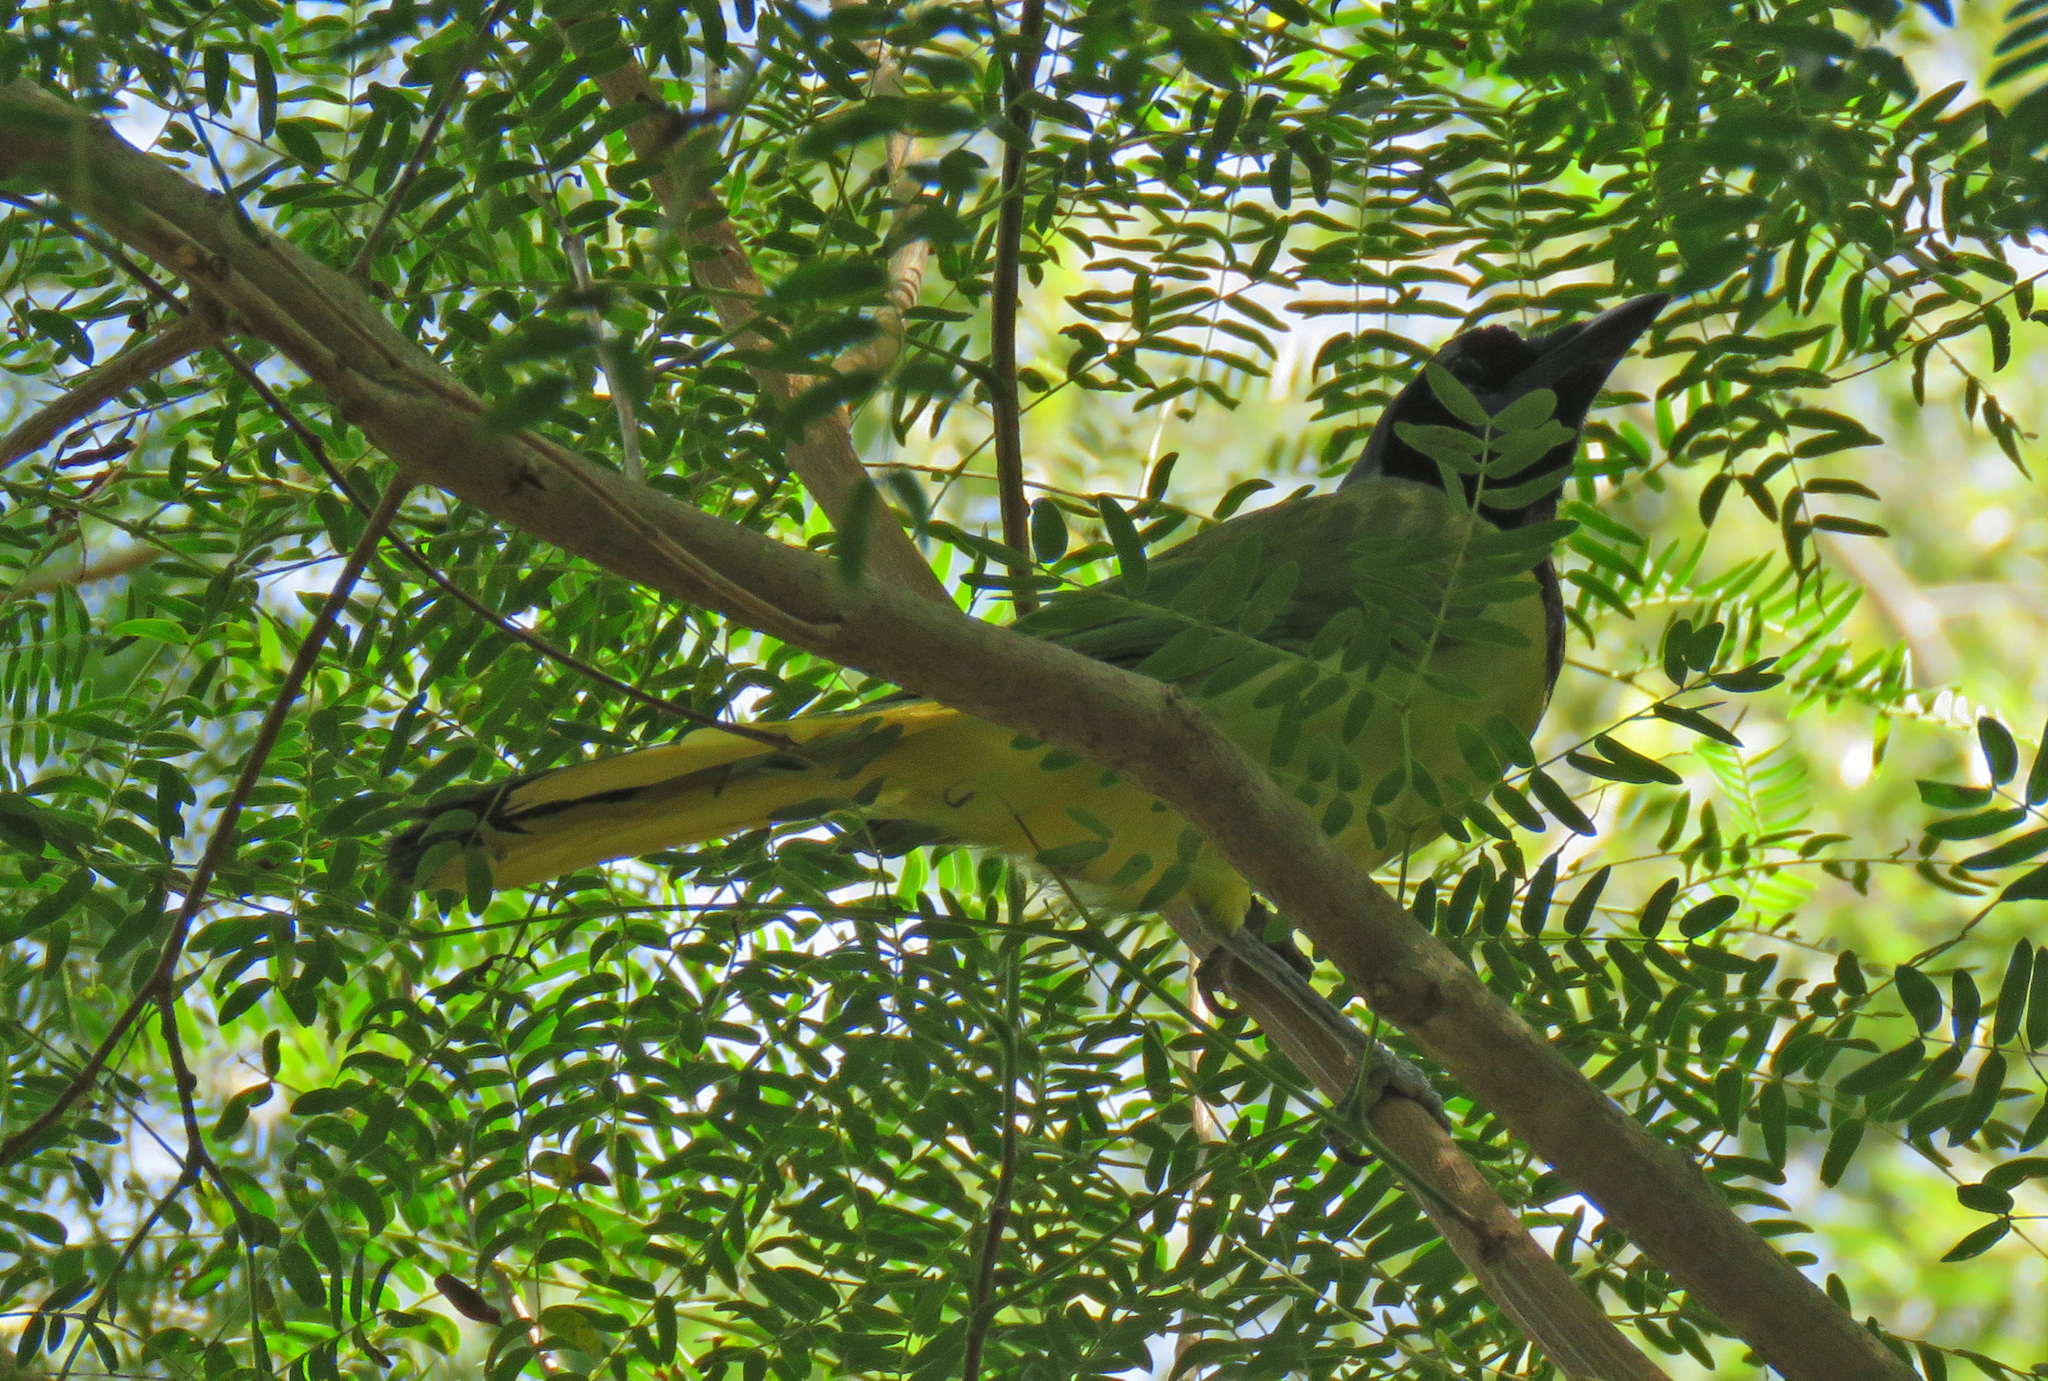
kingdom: Animalia
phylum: Chordata
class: Aves
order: Passeriformes
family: Corvidae
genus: Cyanocorax
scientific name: Cyanocorax yncas
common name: Green jay
